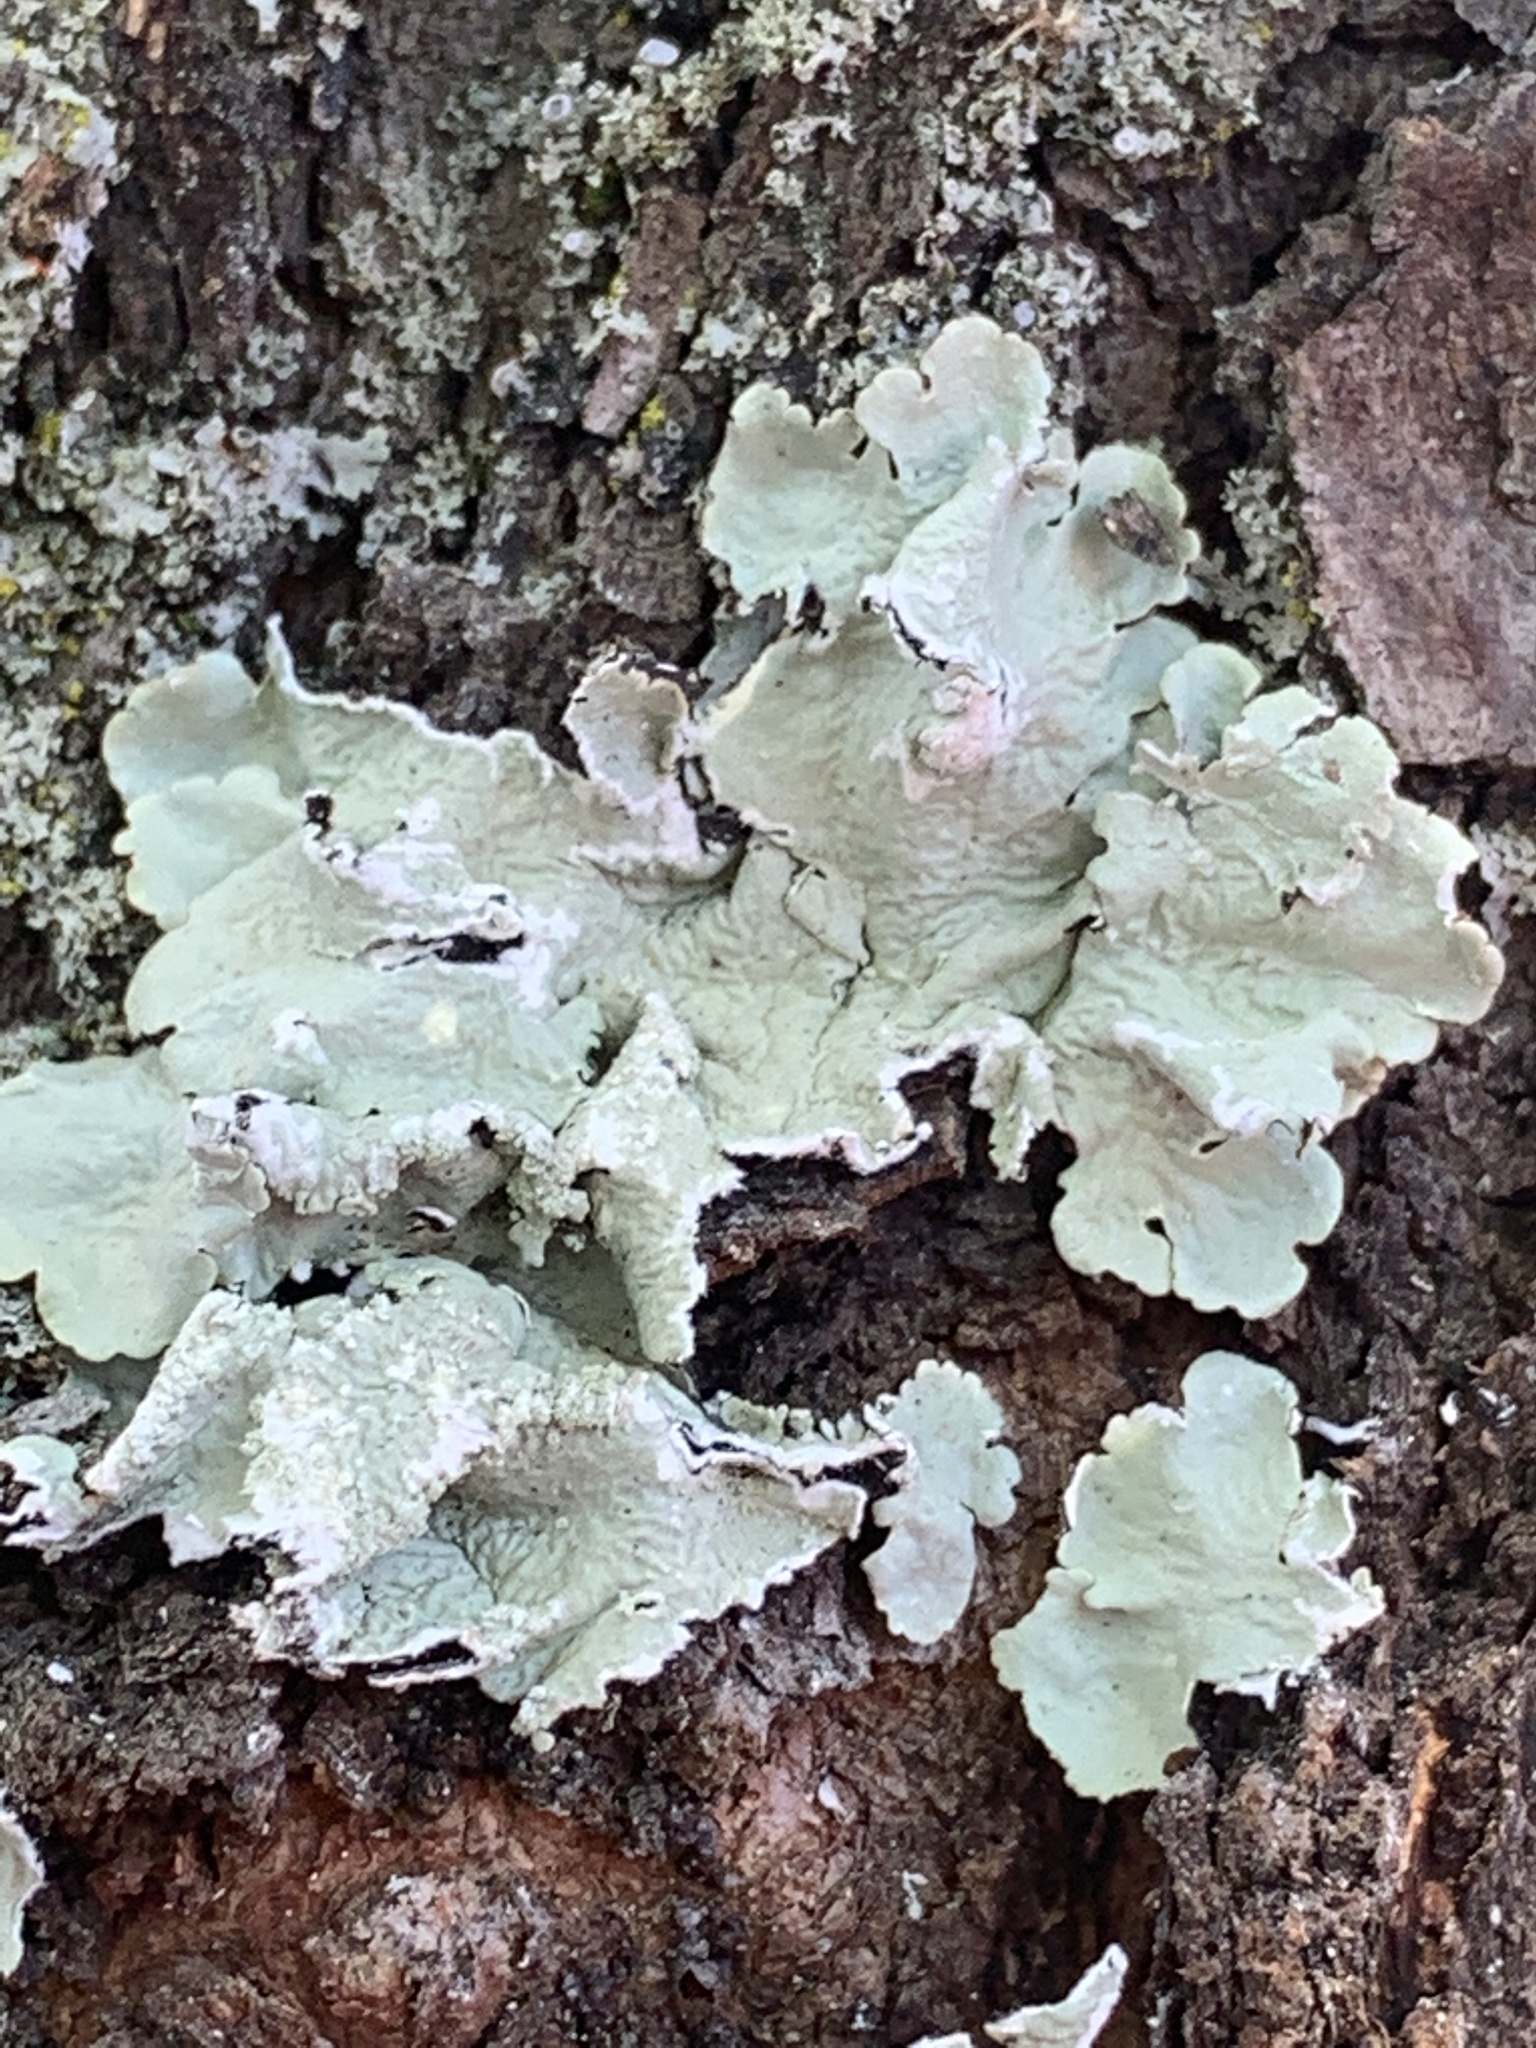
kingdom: Fungi
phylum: Ascomycota
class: Lecanoromycetes
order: Lecanorales
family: Parmeliaceae
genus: Flavoparmelia
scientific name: Flavoparmelia caperata
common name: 40-mile per hour lichen
